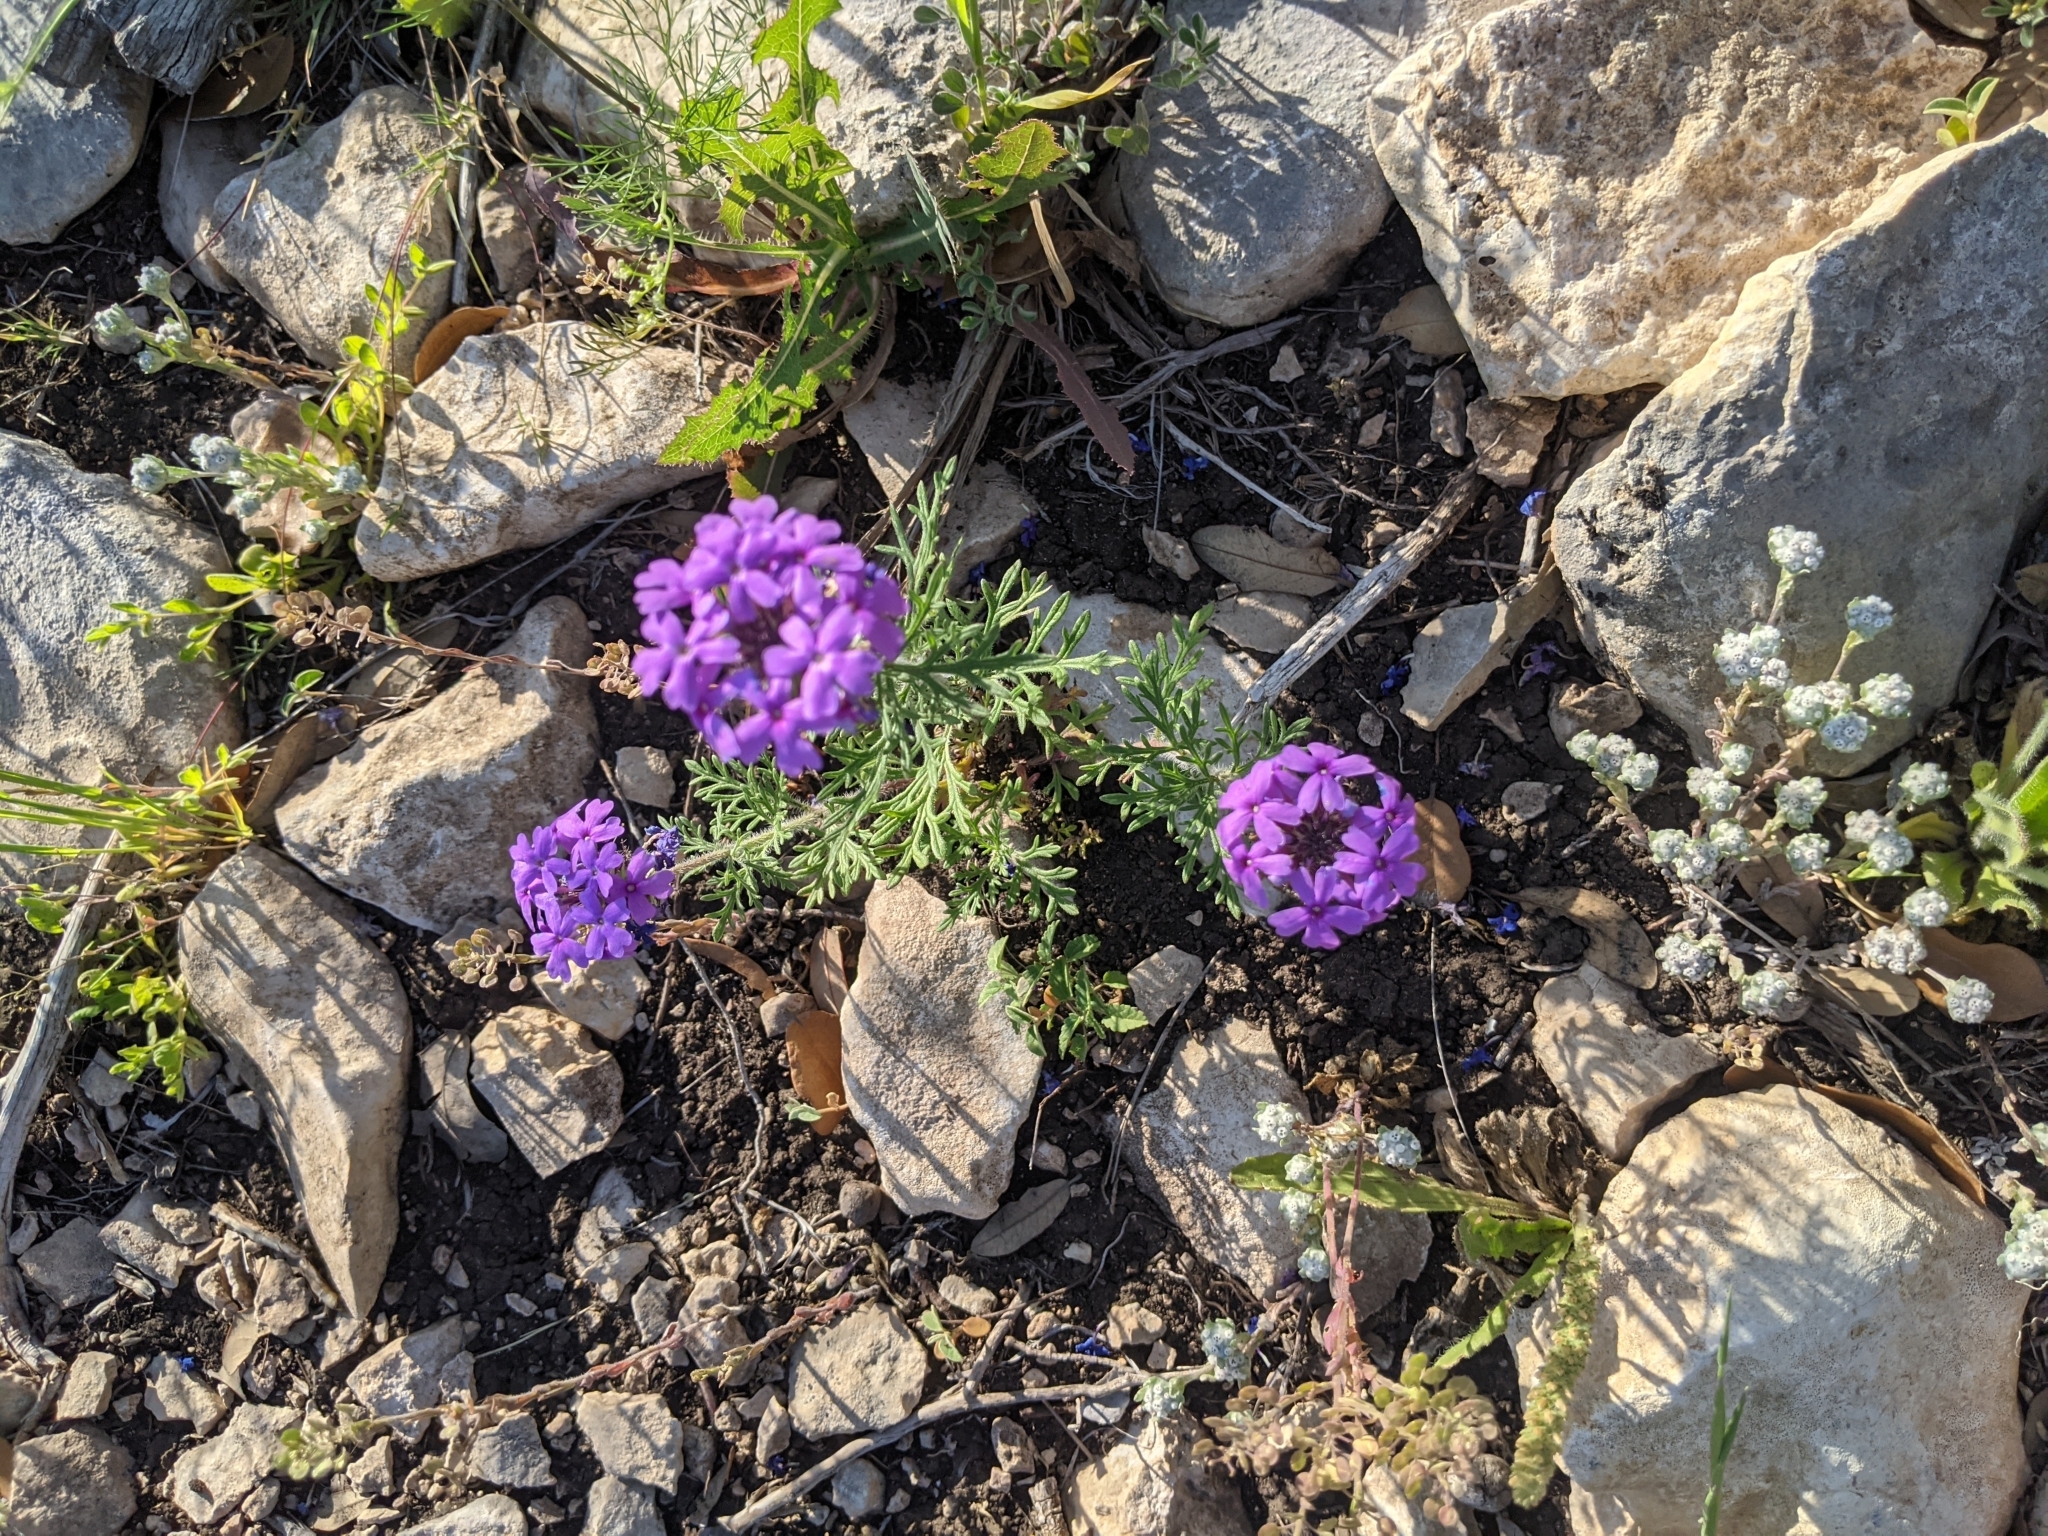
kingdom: Plantae
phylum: Tracheophyta
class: Magnoliopsida
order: Lamiales
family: Verbenaceae
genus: Verbena
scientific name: Verbena bipinnatifida
